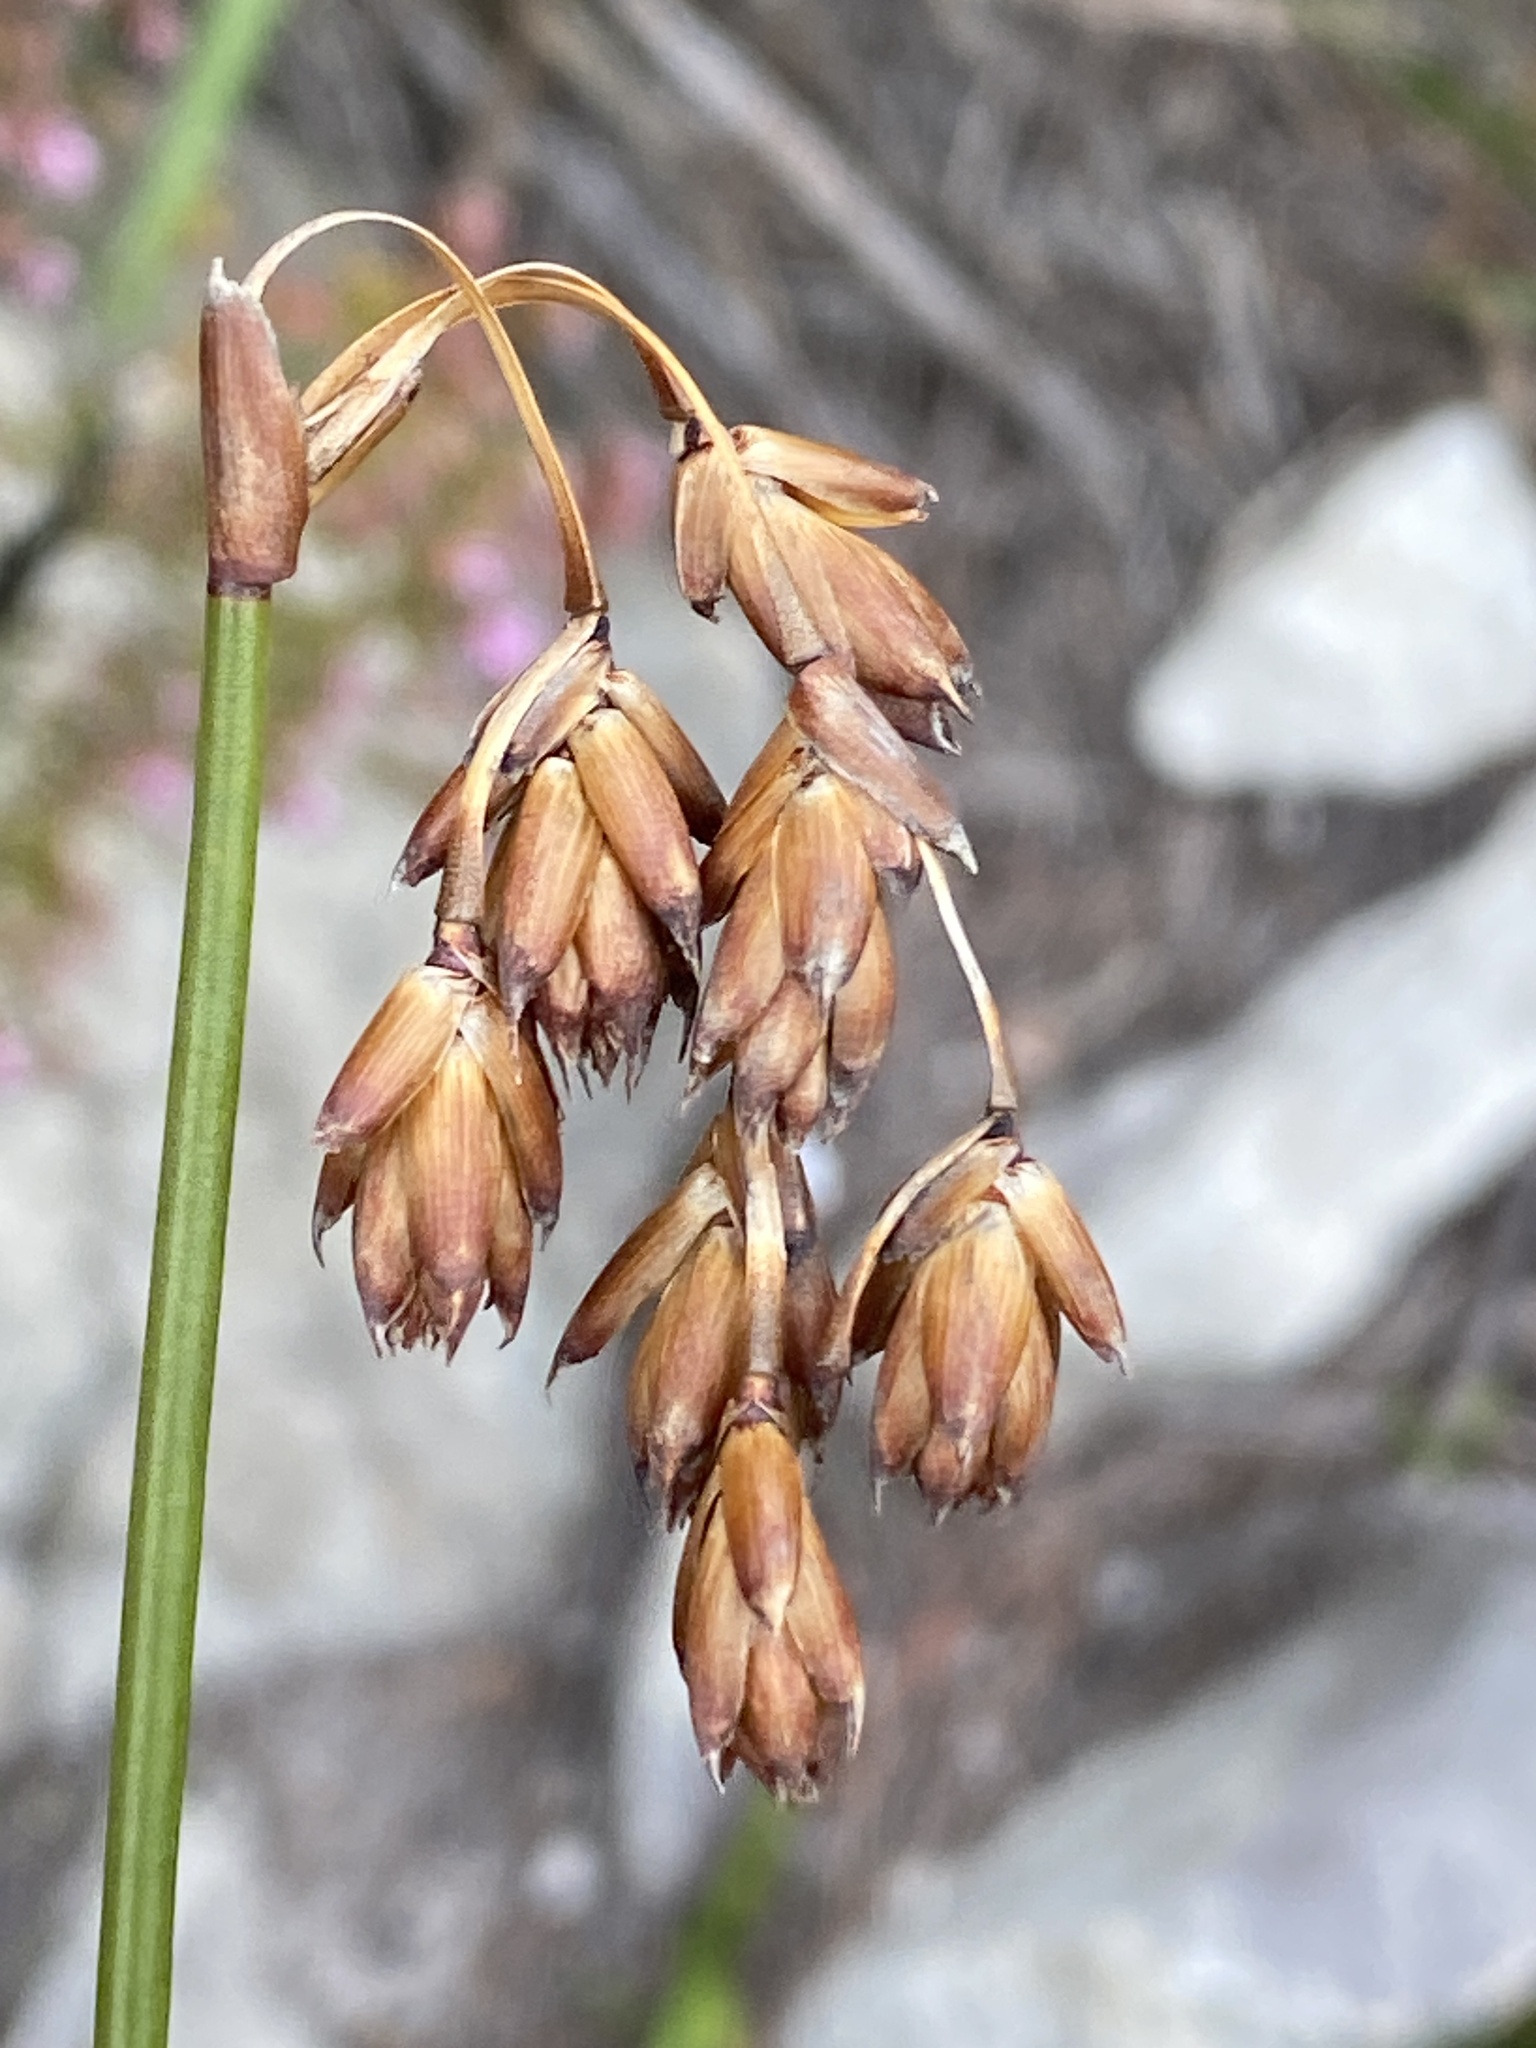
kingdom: Plantae
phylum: Tracheophyta
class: Liliopsida
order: Poales
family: Restionaceae
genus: Staberoha
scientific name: Staberoha banksii
